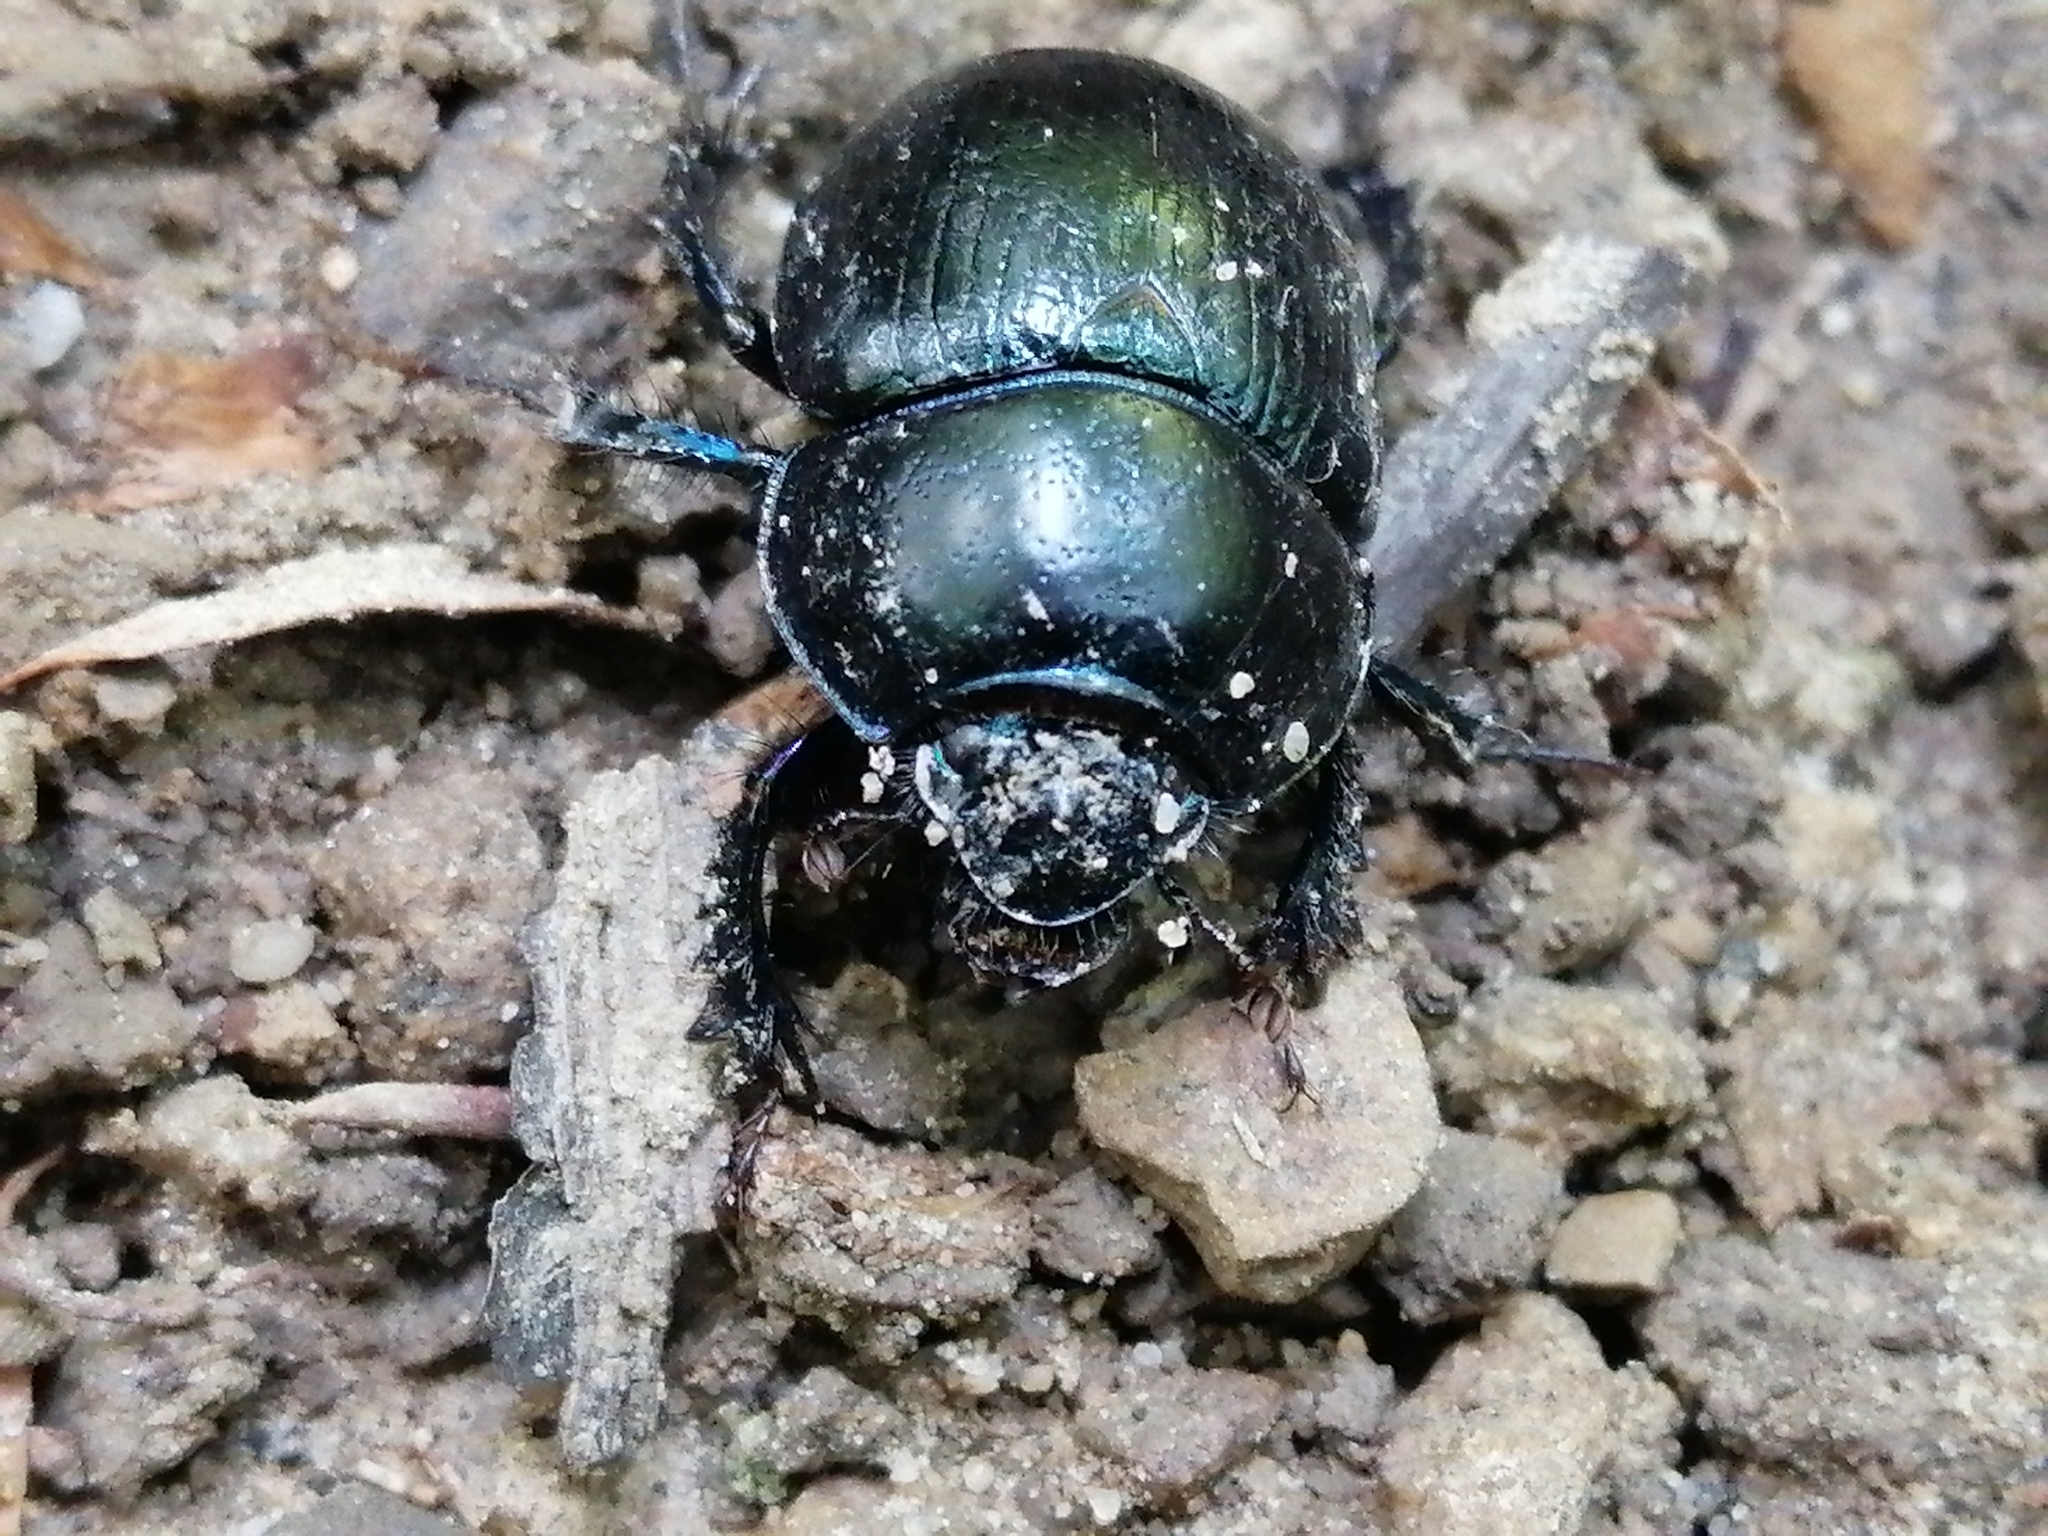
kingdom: Animalia
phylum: Arthropoda
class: Insecta
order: Coleoptera
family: Geotrupidae
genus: Anoplotrupes
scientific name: Anoplotrupes stercorosus
